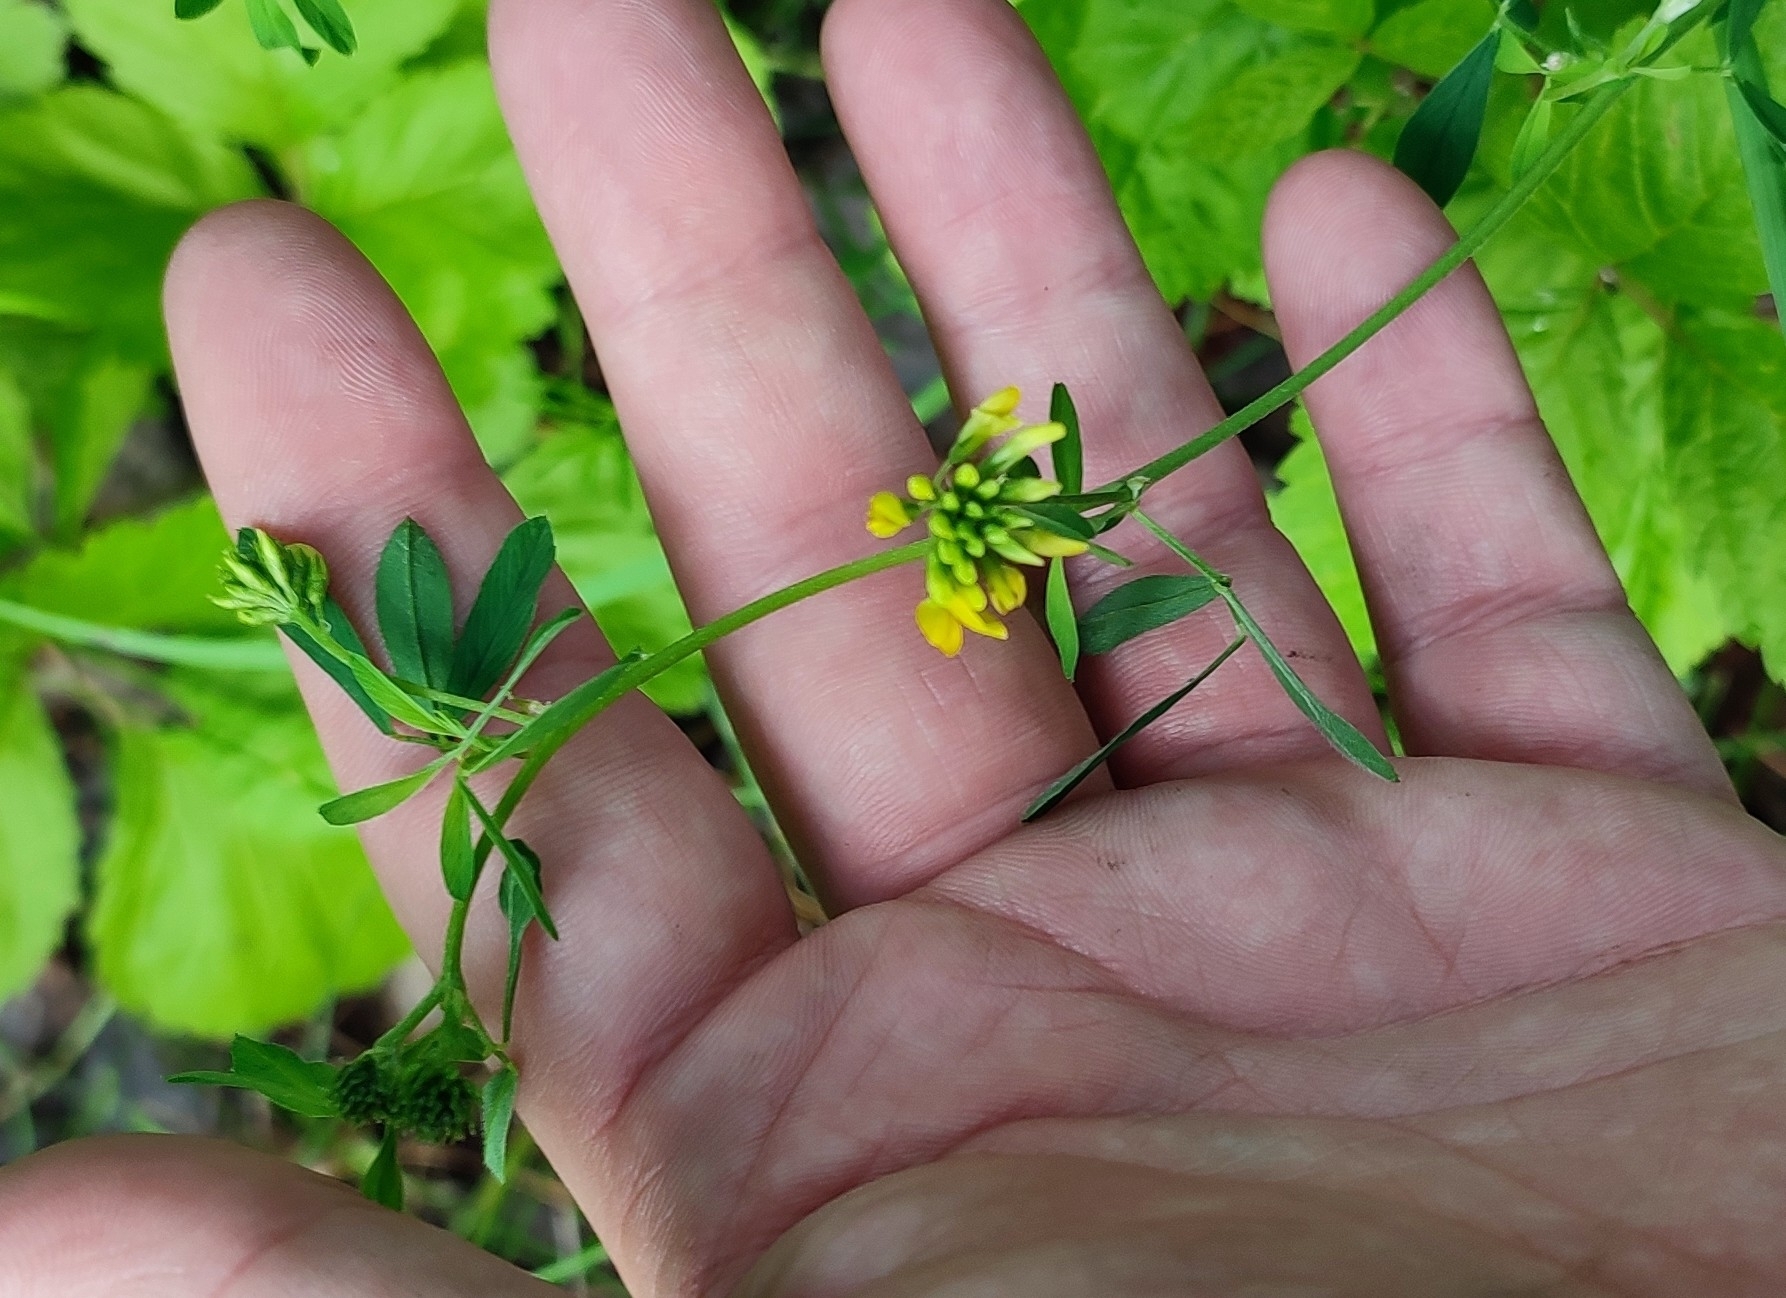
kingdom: Plantae
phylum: Tracheophyta
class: Magnoliopsida
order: Fabales
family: Fabaceae
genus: Medicago
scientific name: Medicago falcata
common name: Sickle medick
